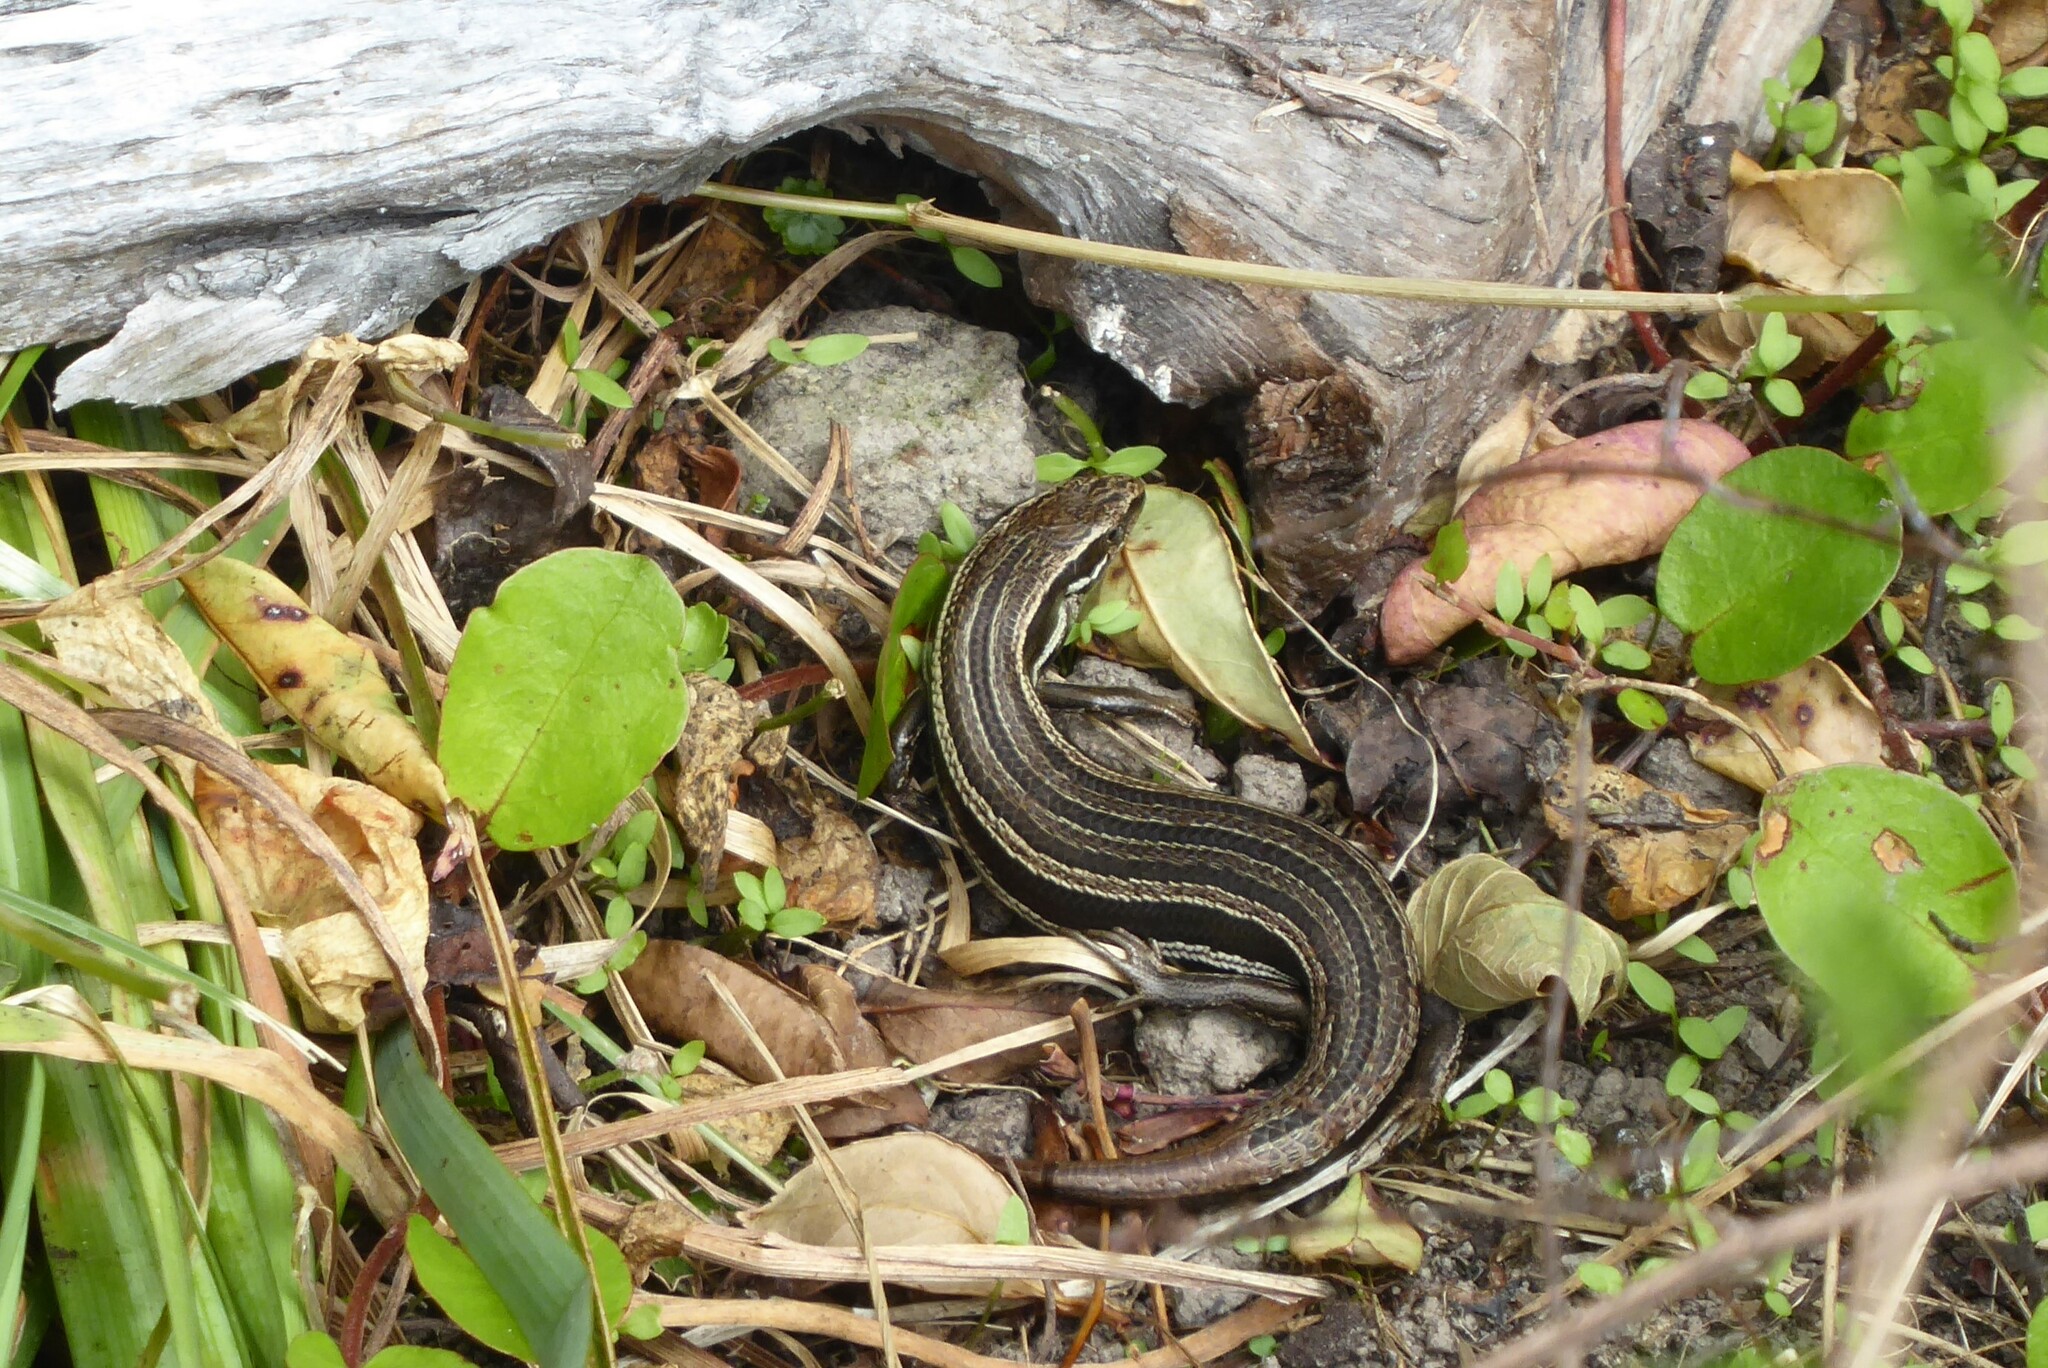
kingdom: Animalia
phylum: Chordata
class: Squamata
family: Scincidae
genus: Oligosoma
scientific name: Oligosoma polychroma
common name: Common new zealand skink
